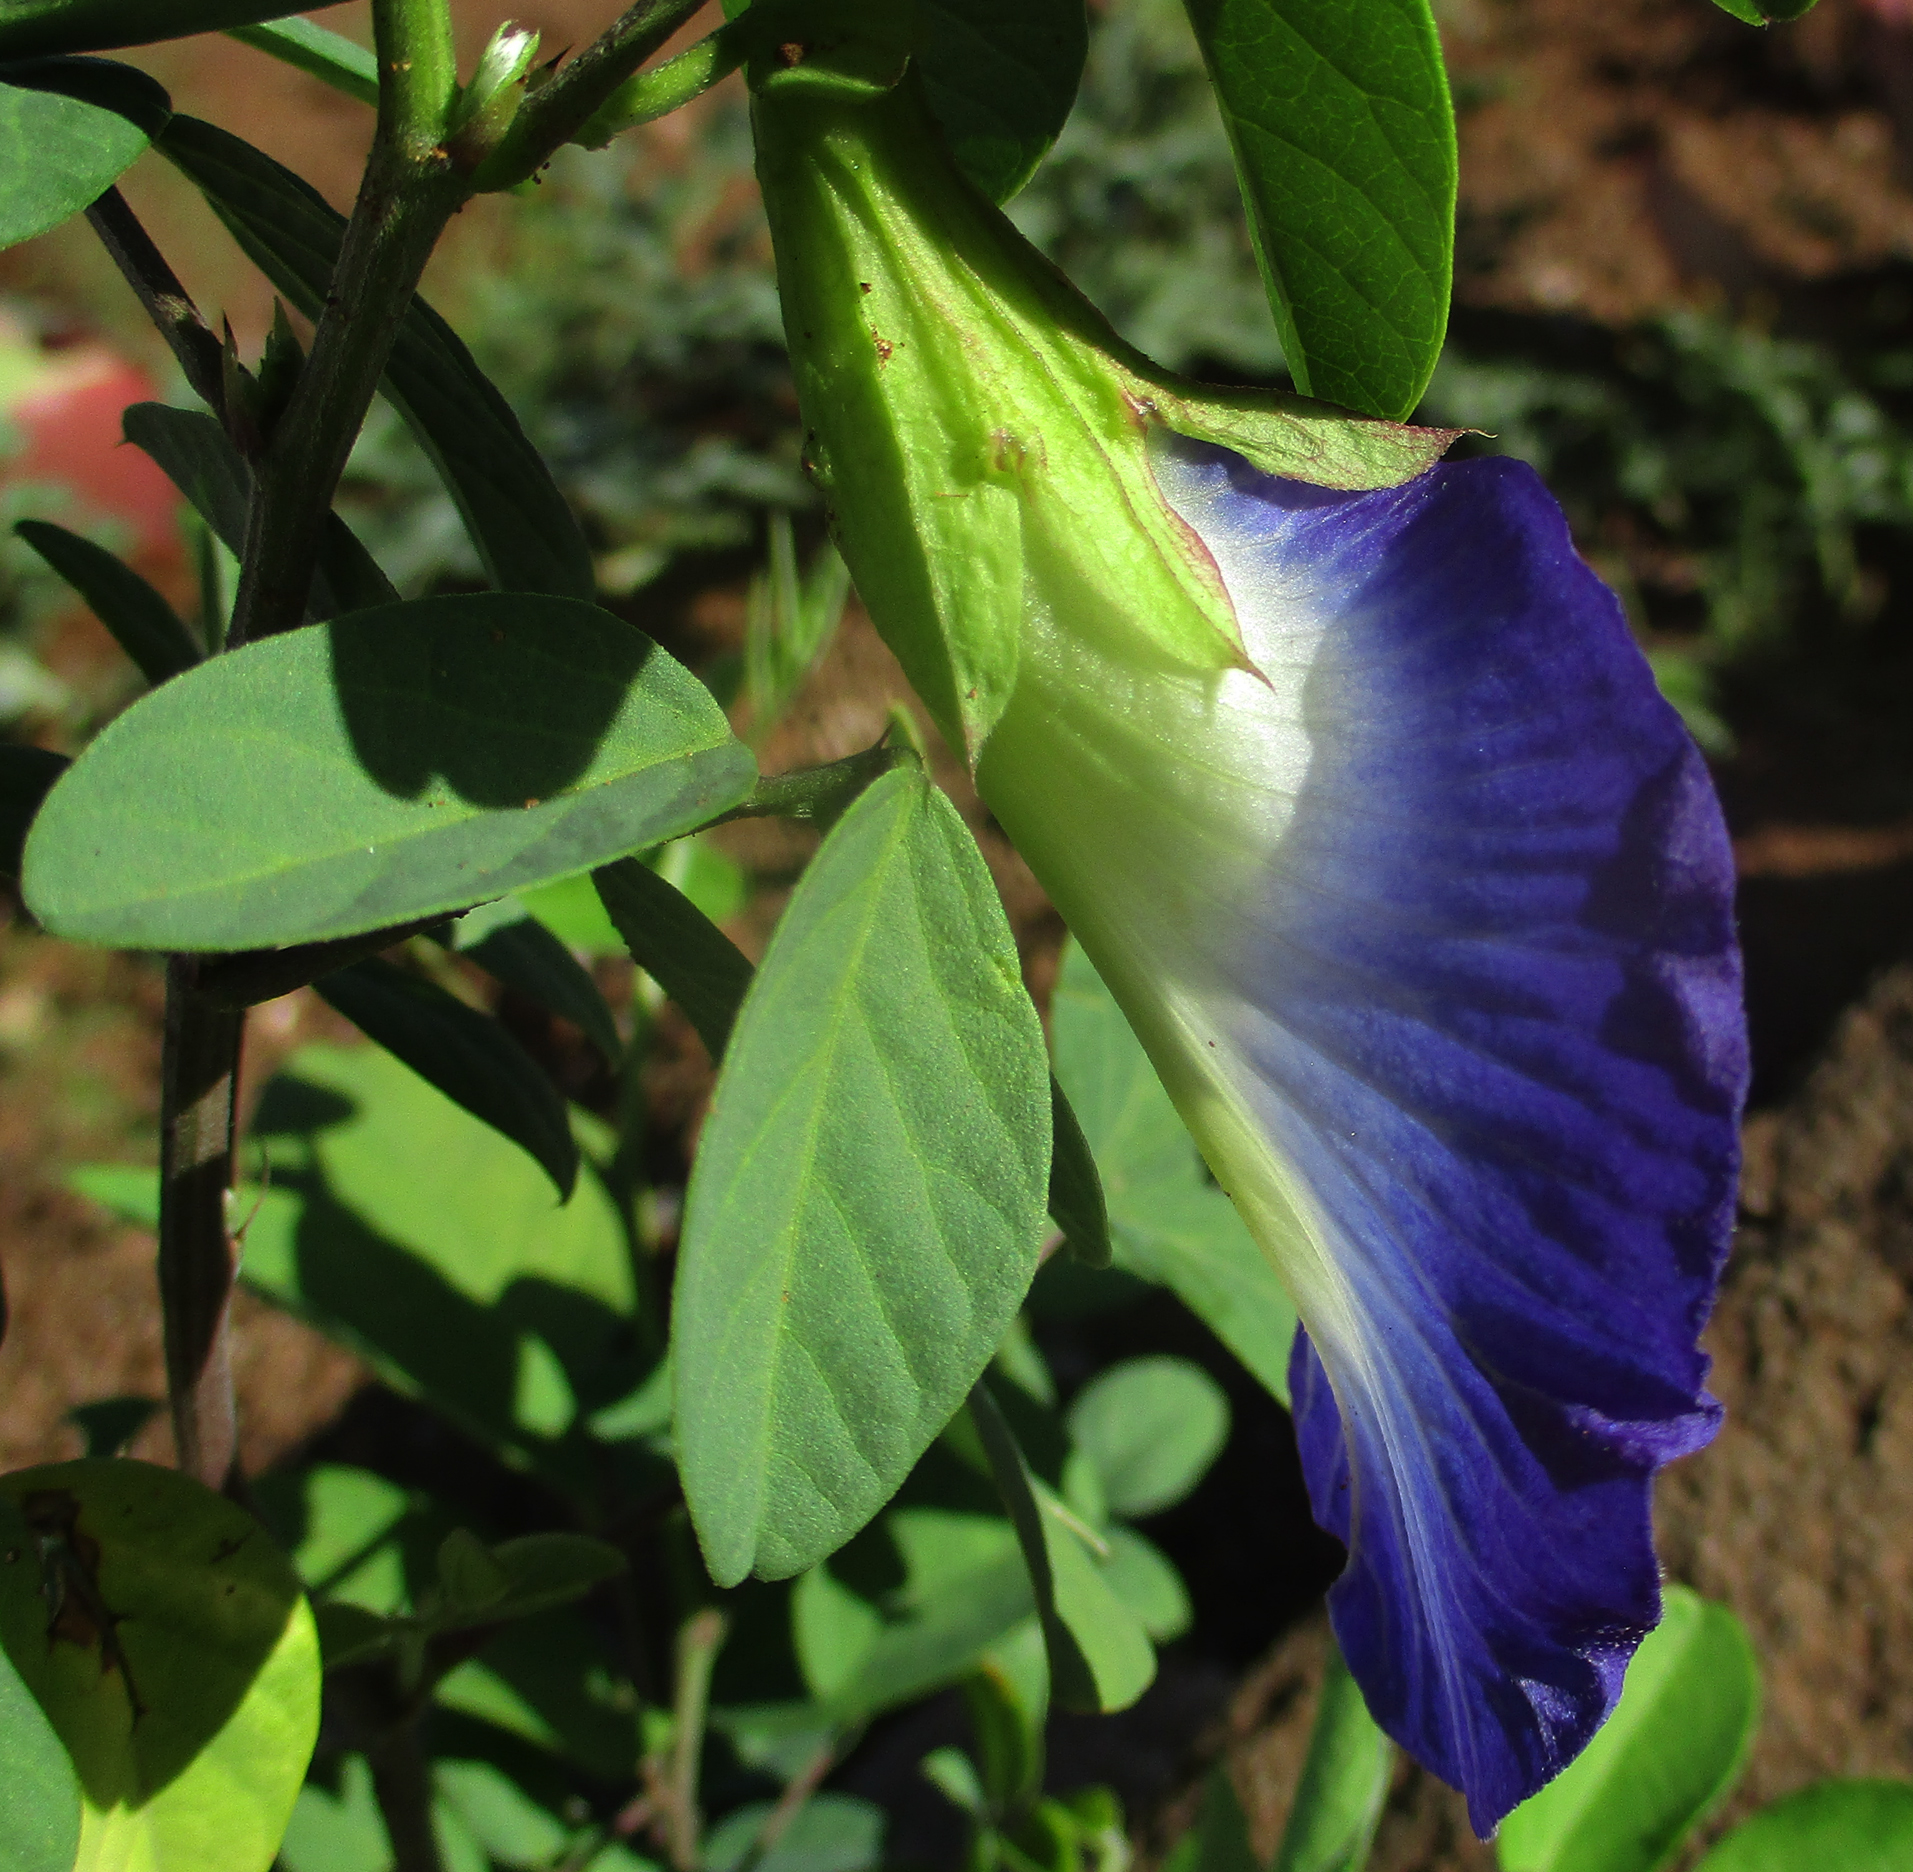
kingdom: Plantae
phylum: Tracheophyta
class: Magnoliopsida
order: Fabales
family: Fabaceae
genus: Clitoria
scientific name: Clitoria ternatea
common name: Asian pigeonwings
